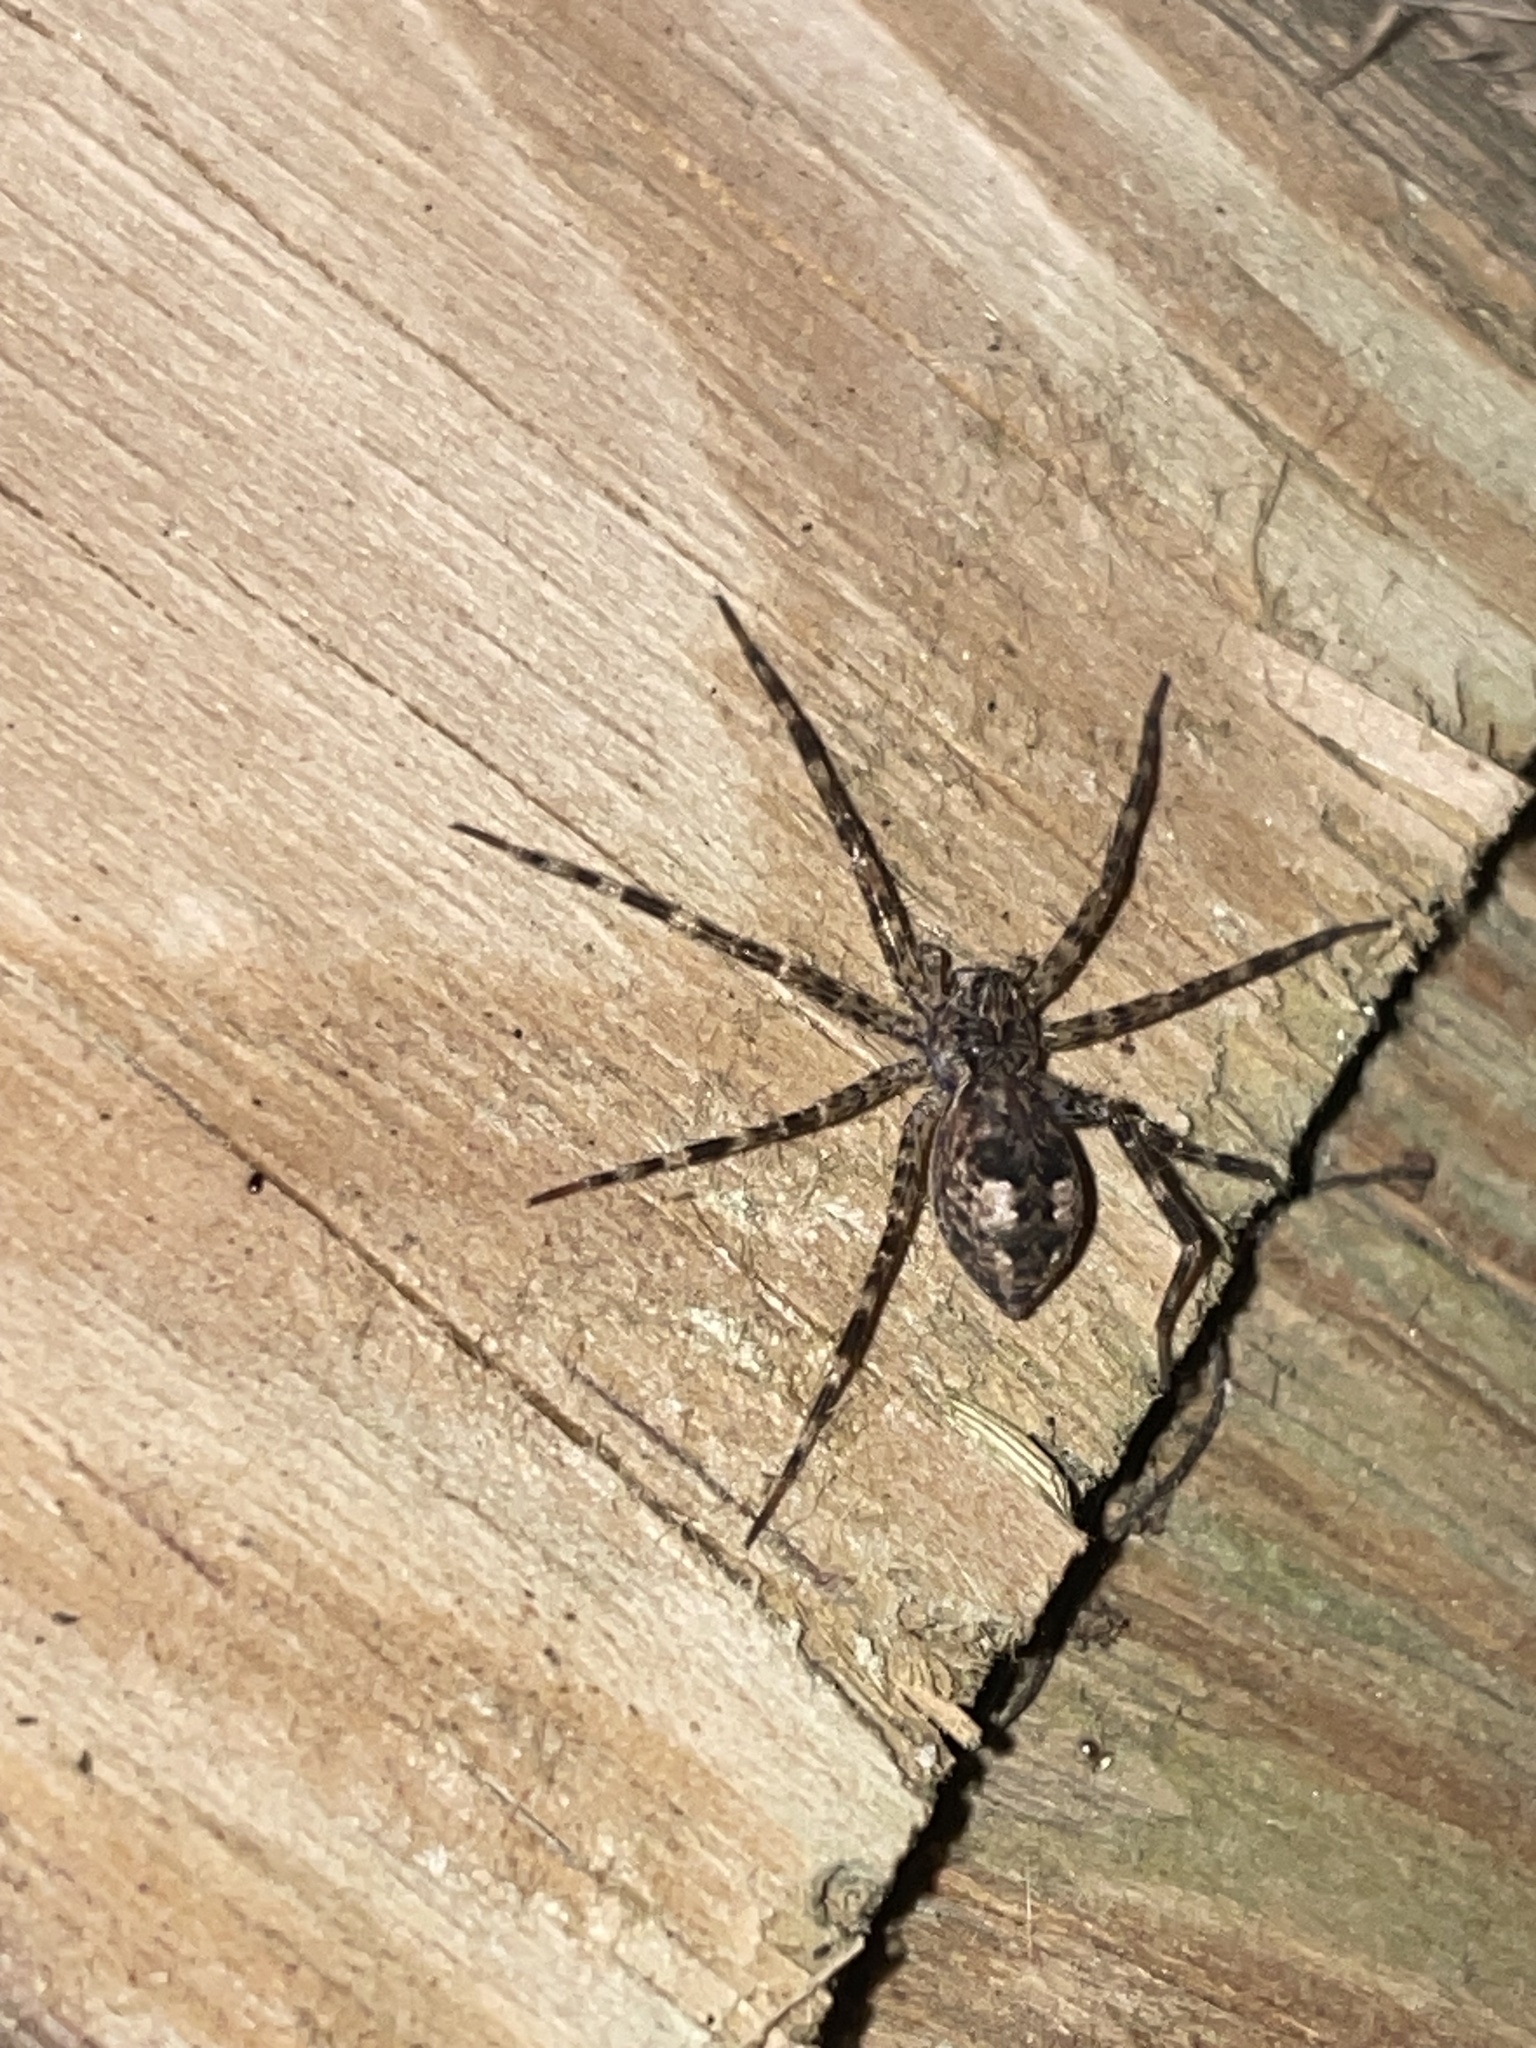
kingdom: Animalia
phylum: Arthropoda
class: Arachnida
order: Araneae
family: Pisauridae
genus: Dolomedes
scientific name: Dolomedes tenebrosus
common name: Dark fishing spider
